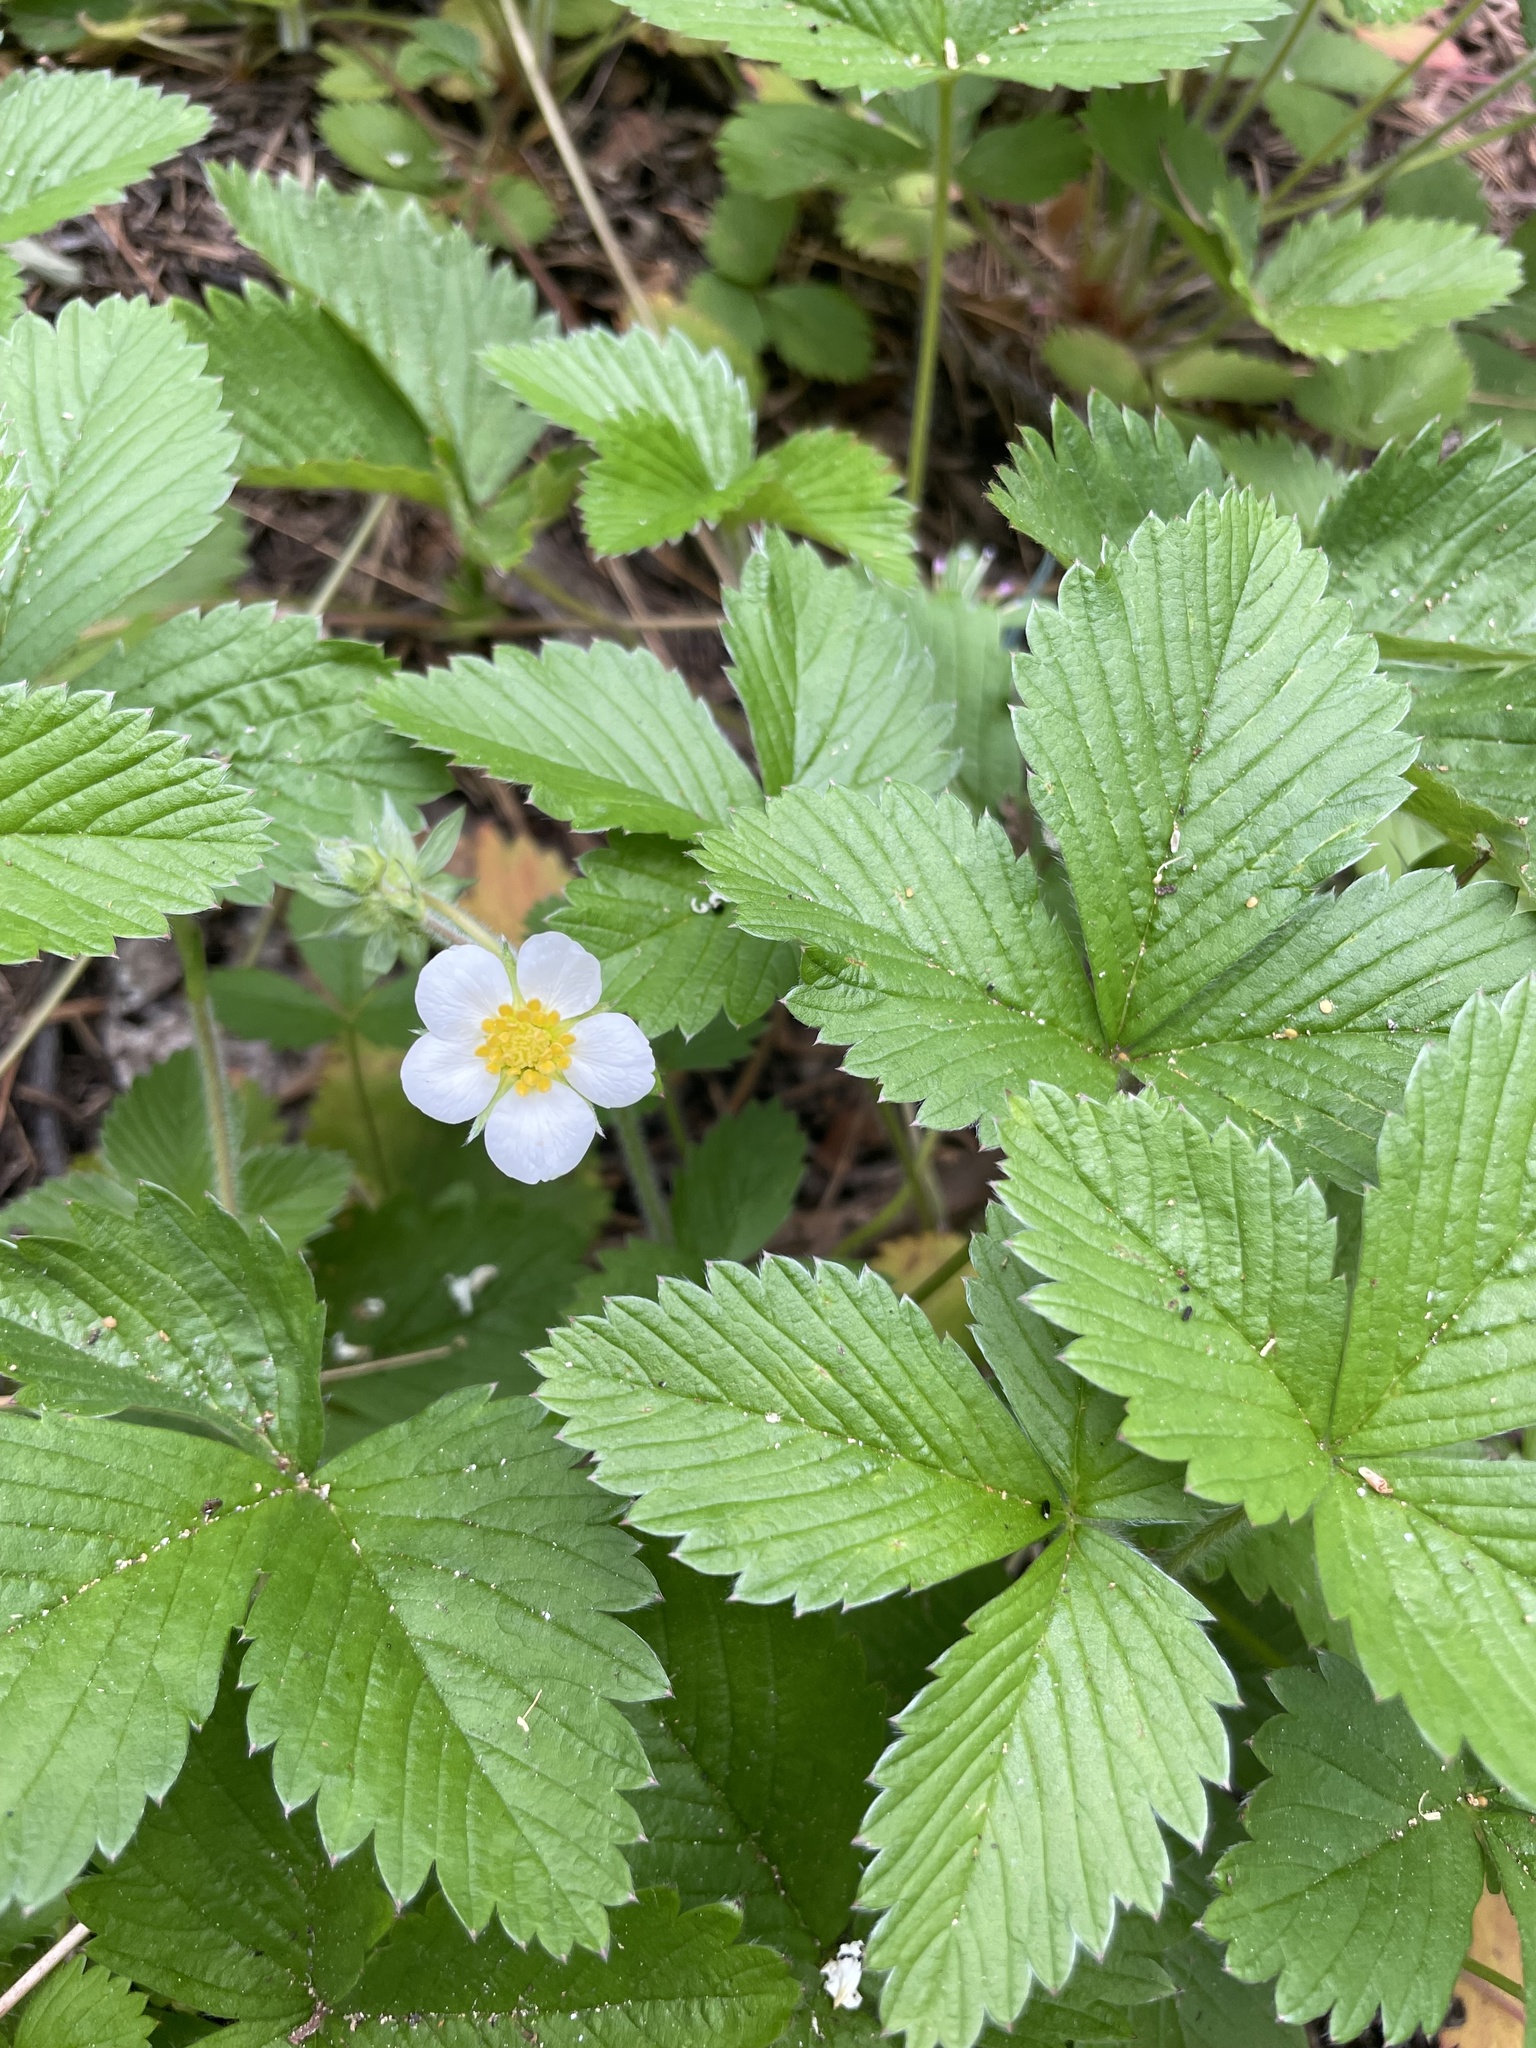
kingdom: Plantae
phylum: Tracheophyta
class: Magnoliopsida
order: Rosales
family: Rosaceae
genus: Fragaria
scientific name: Fragaria vesca
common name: Wild strawberry
